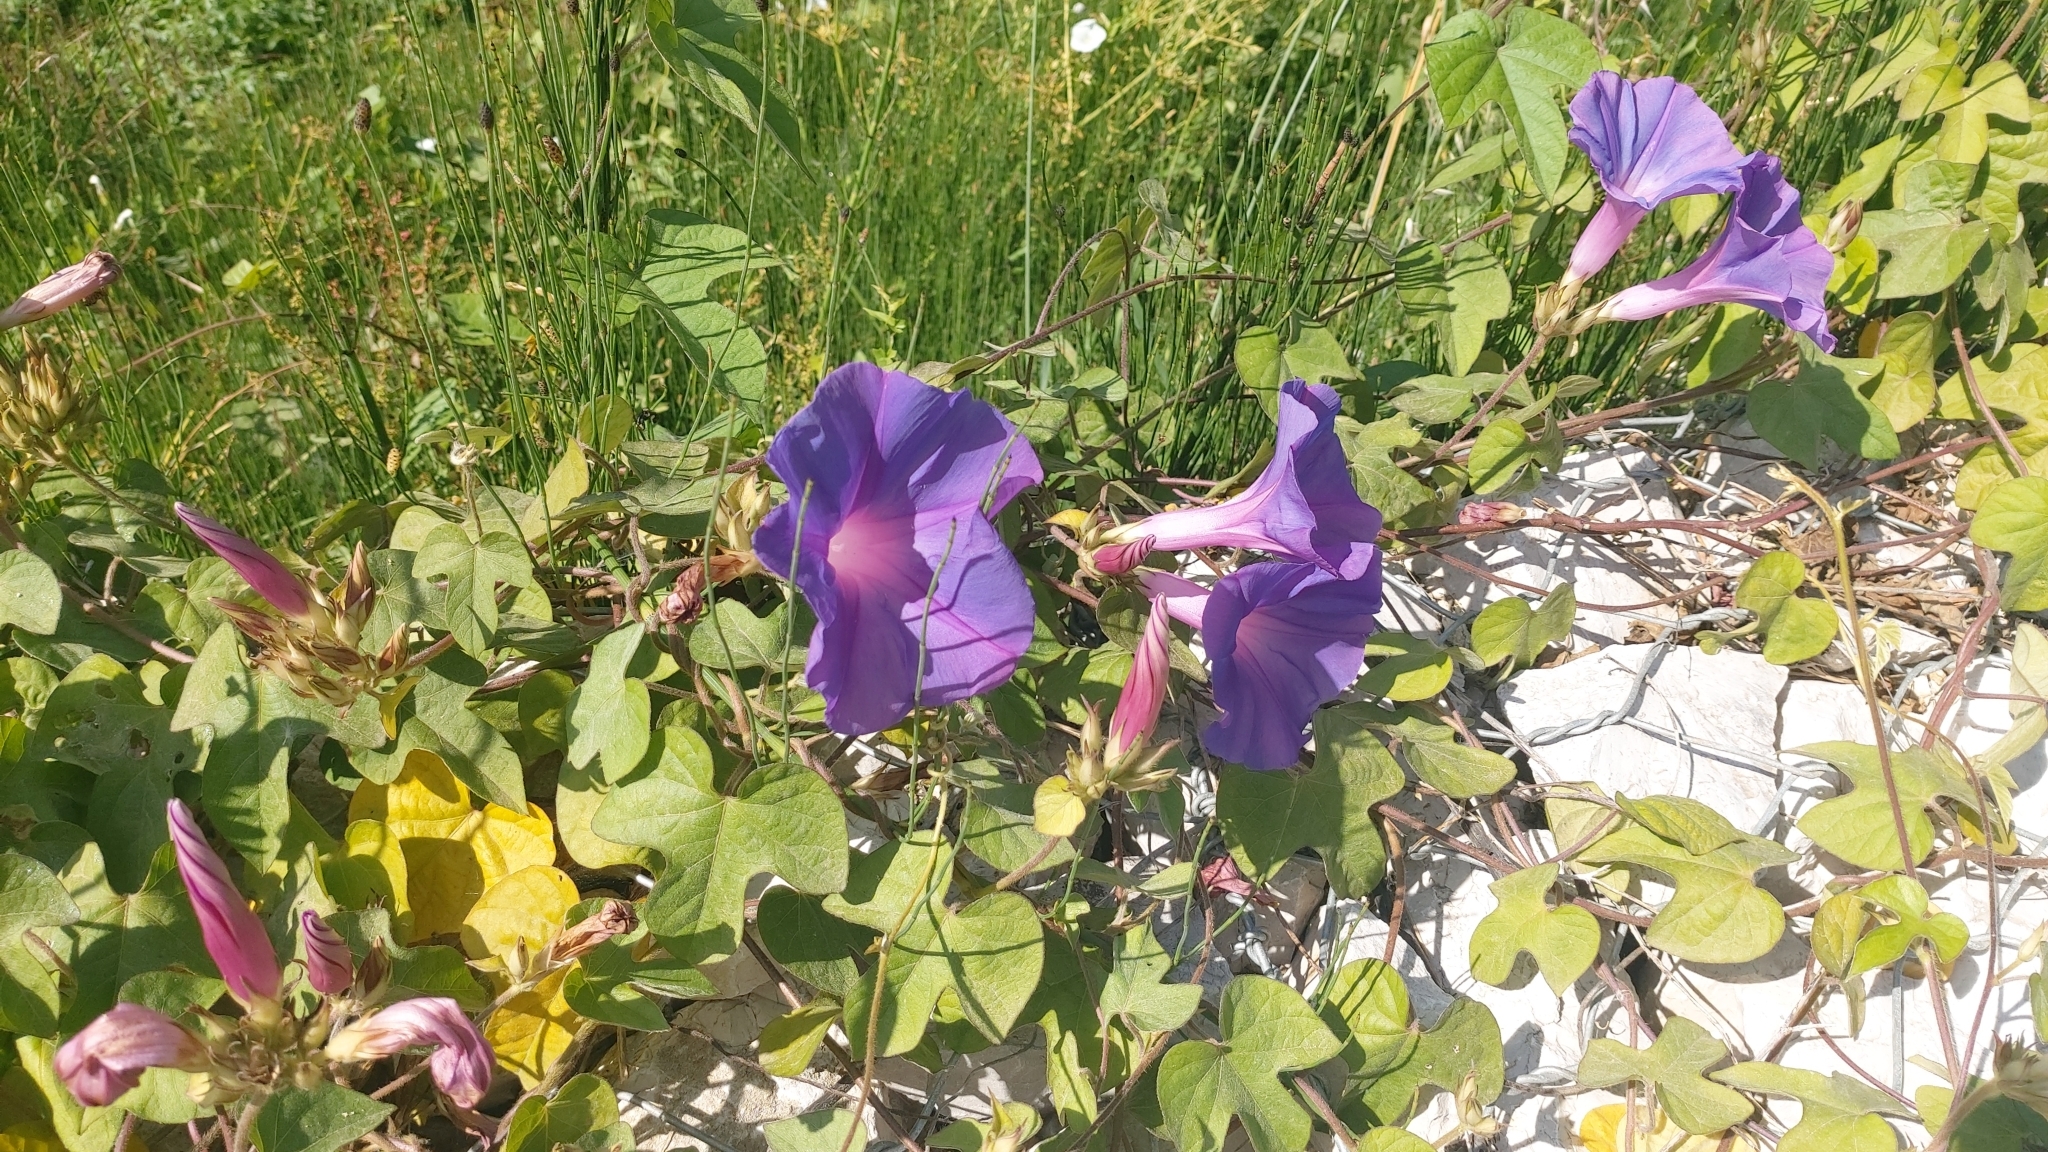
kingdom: Plantae
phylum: Tracheophyta
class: Magnoliopsida
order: Solanales
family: Convolvulaceae
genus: Ipomoea
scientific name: Ipomoea indica
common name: Blue dawnflower
